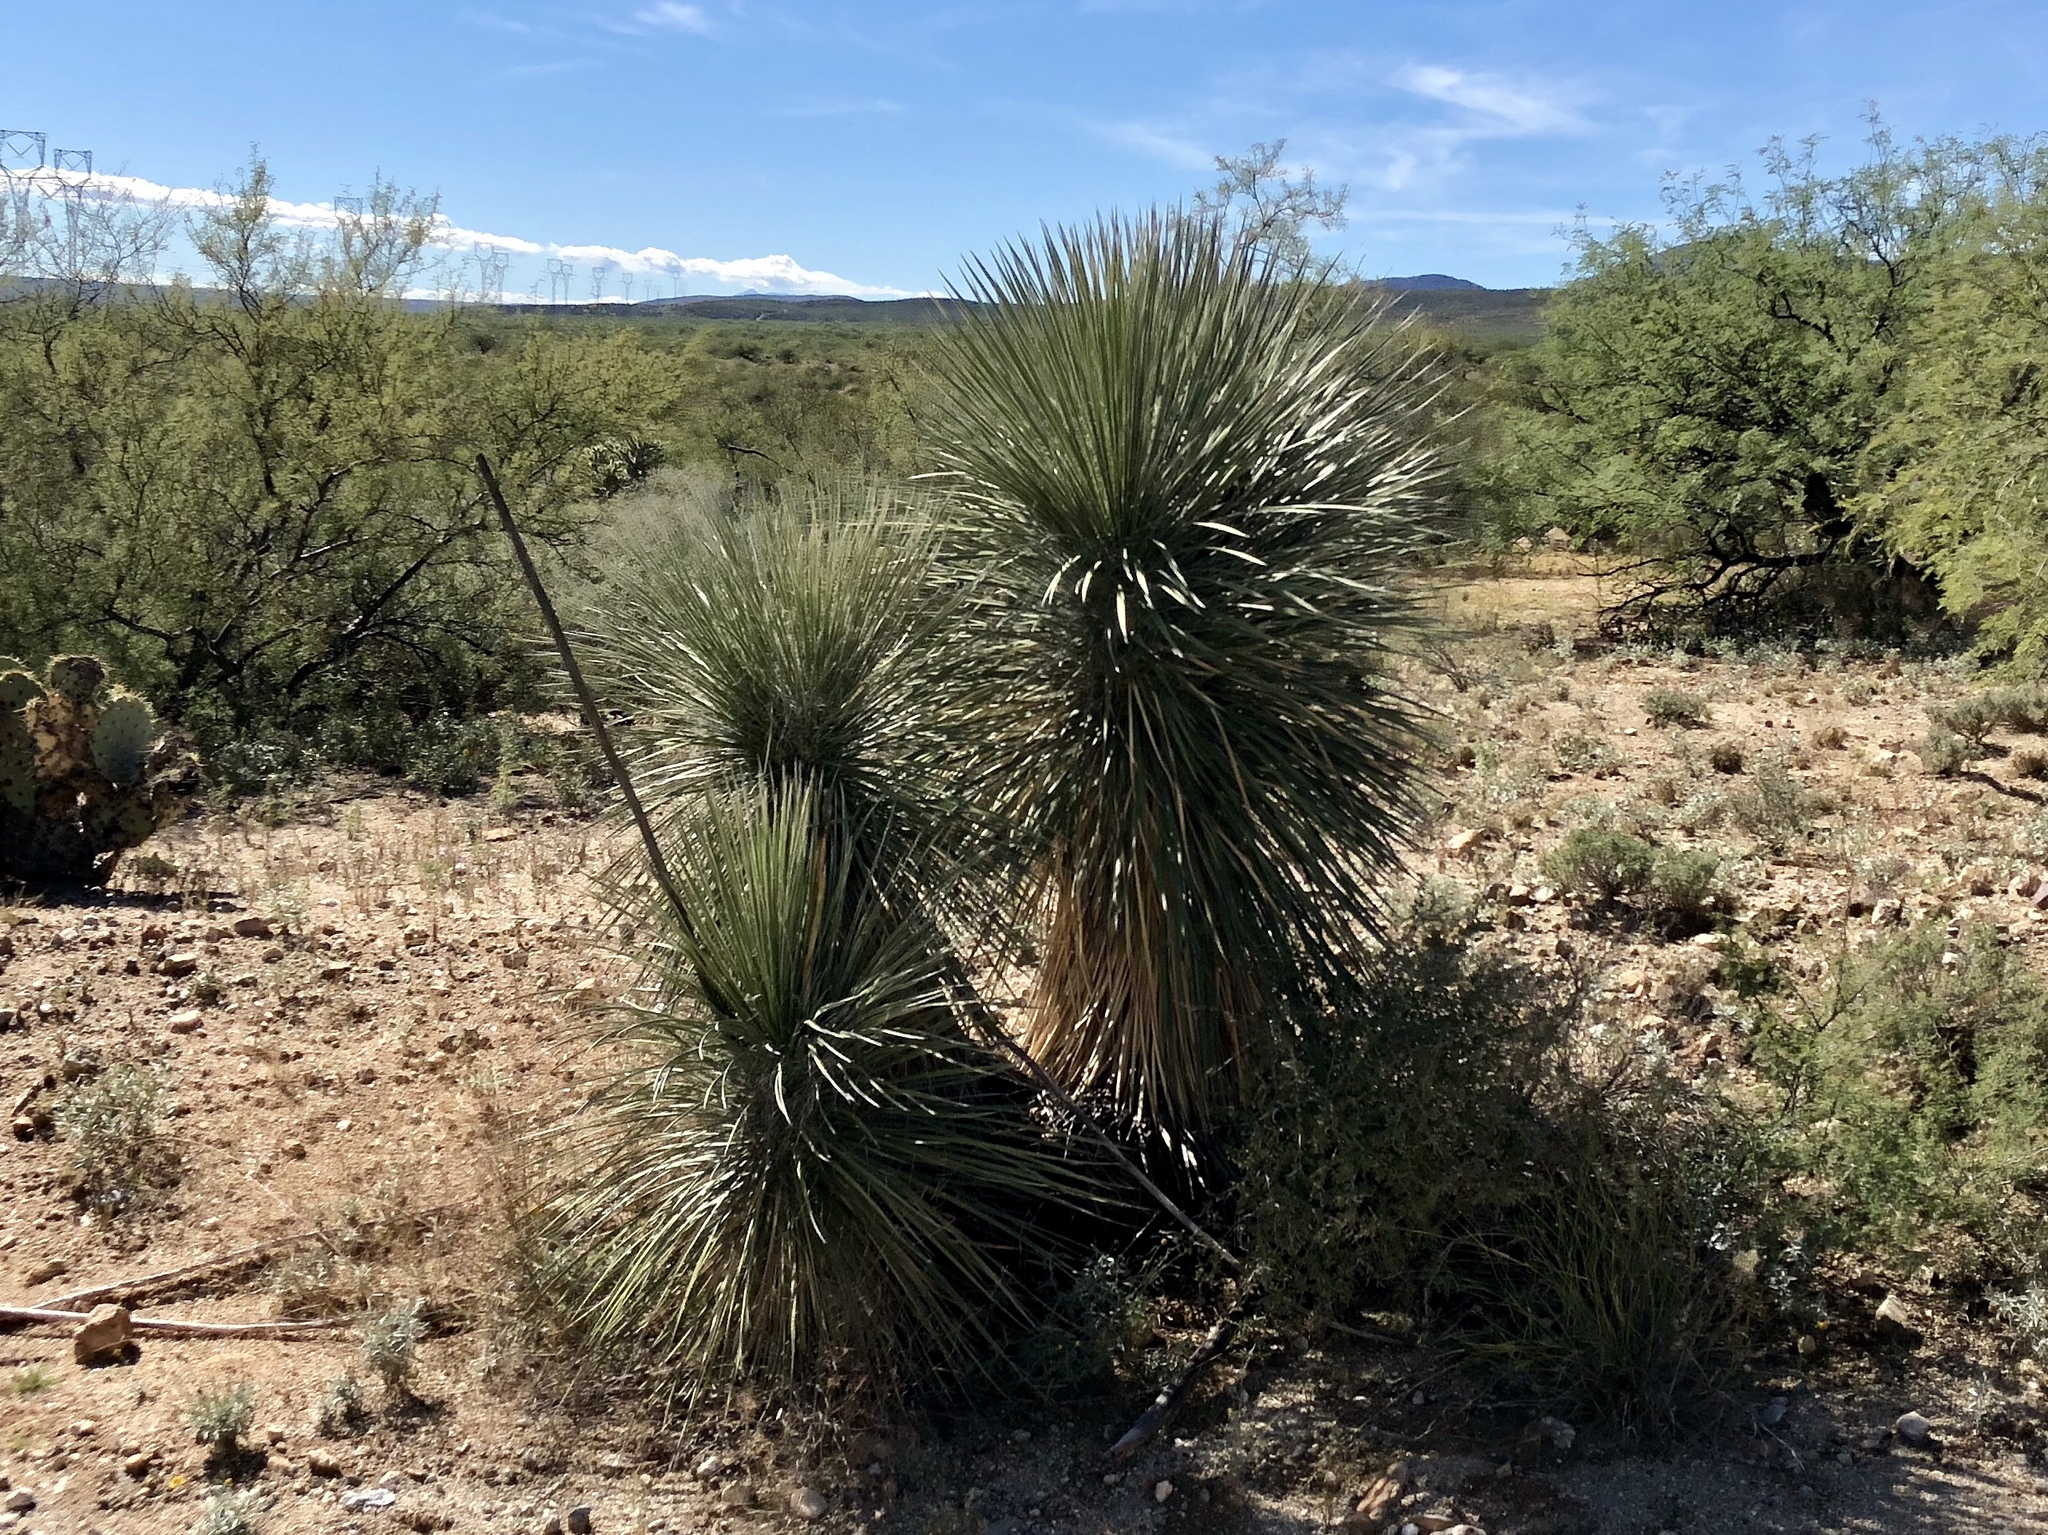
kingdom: Plantae
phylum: Tracheophyta
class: Liliopsida
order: Asparagales
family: Asparagaceae
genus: Yucca
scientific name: Yucca elata
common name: Palmella
